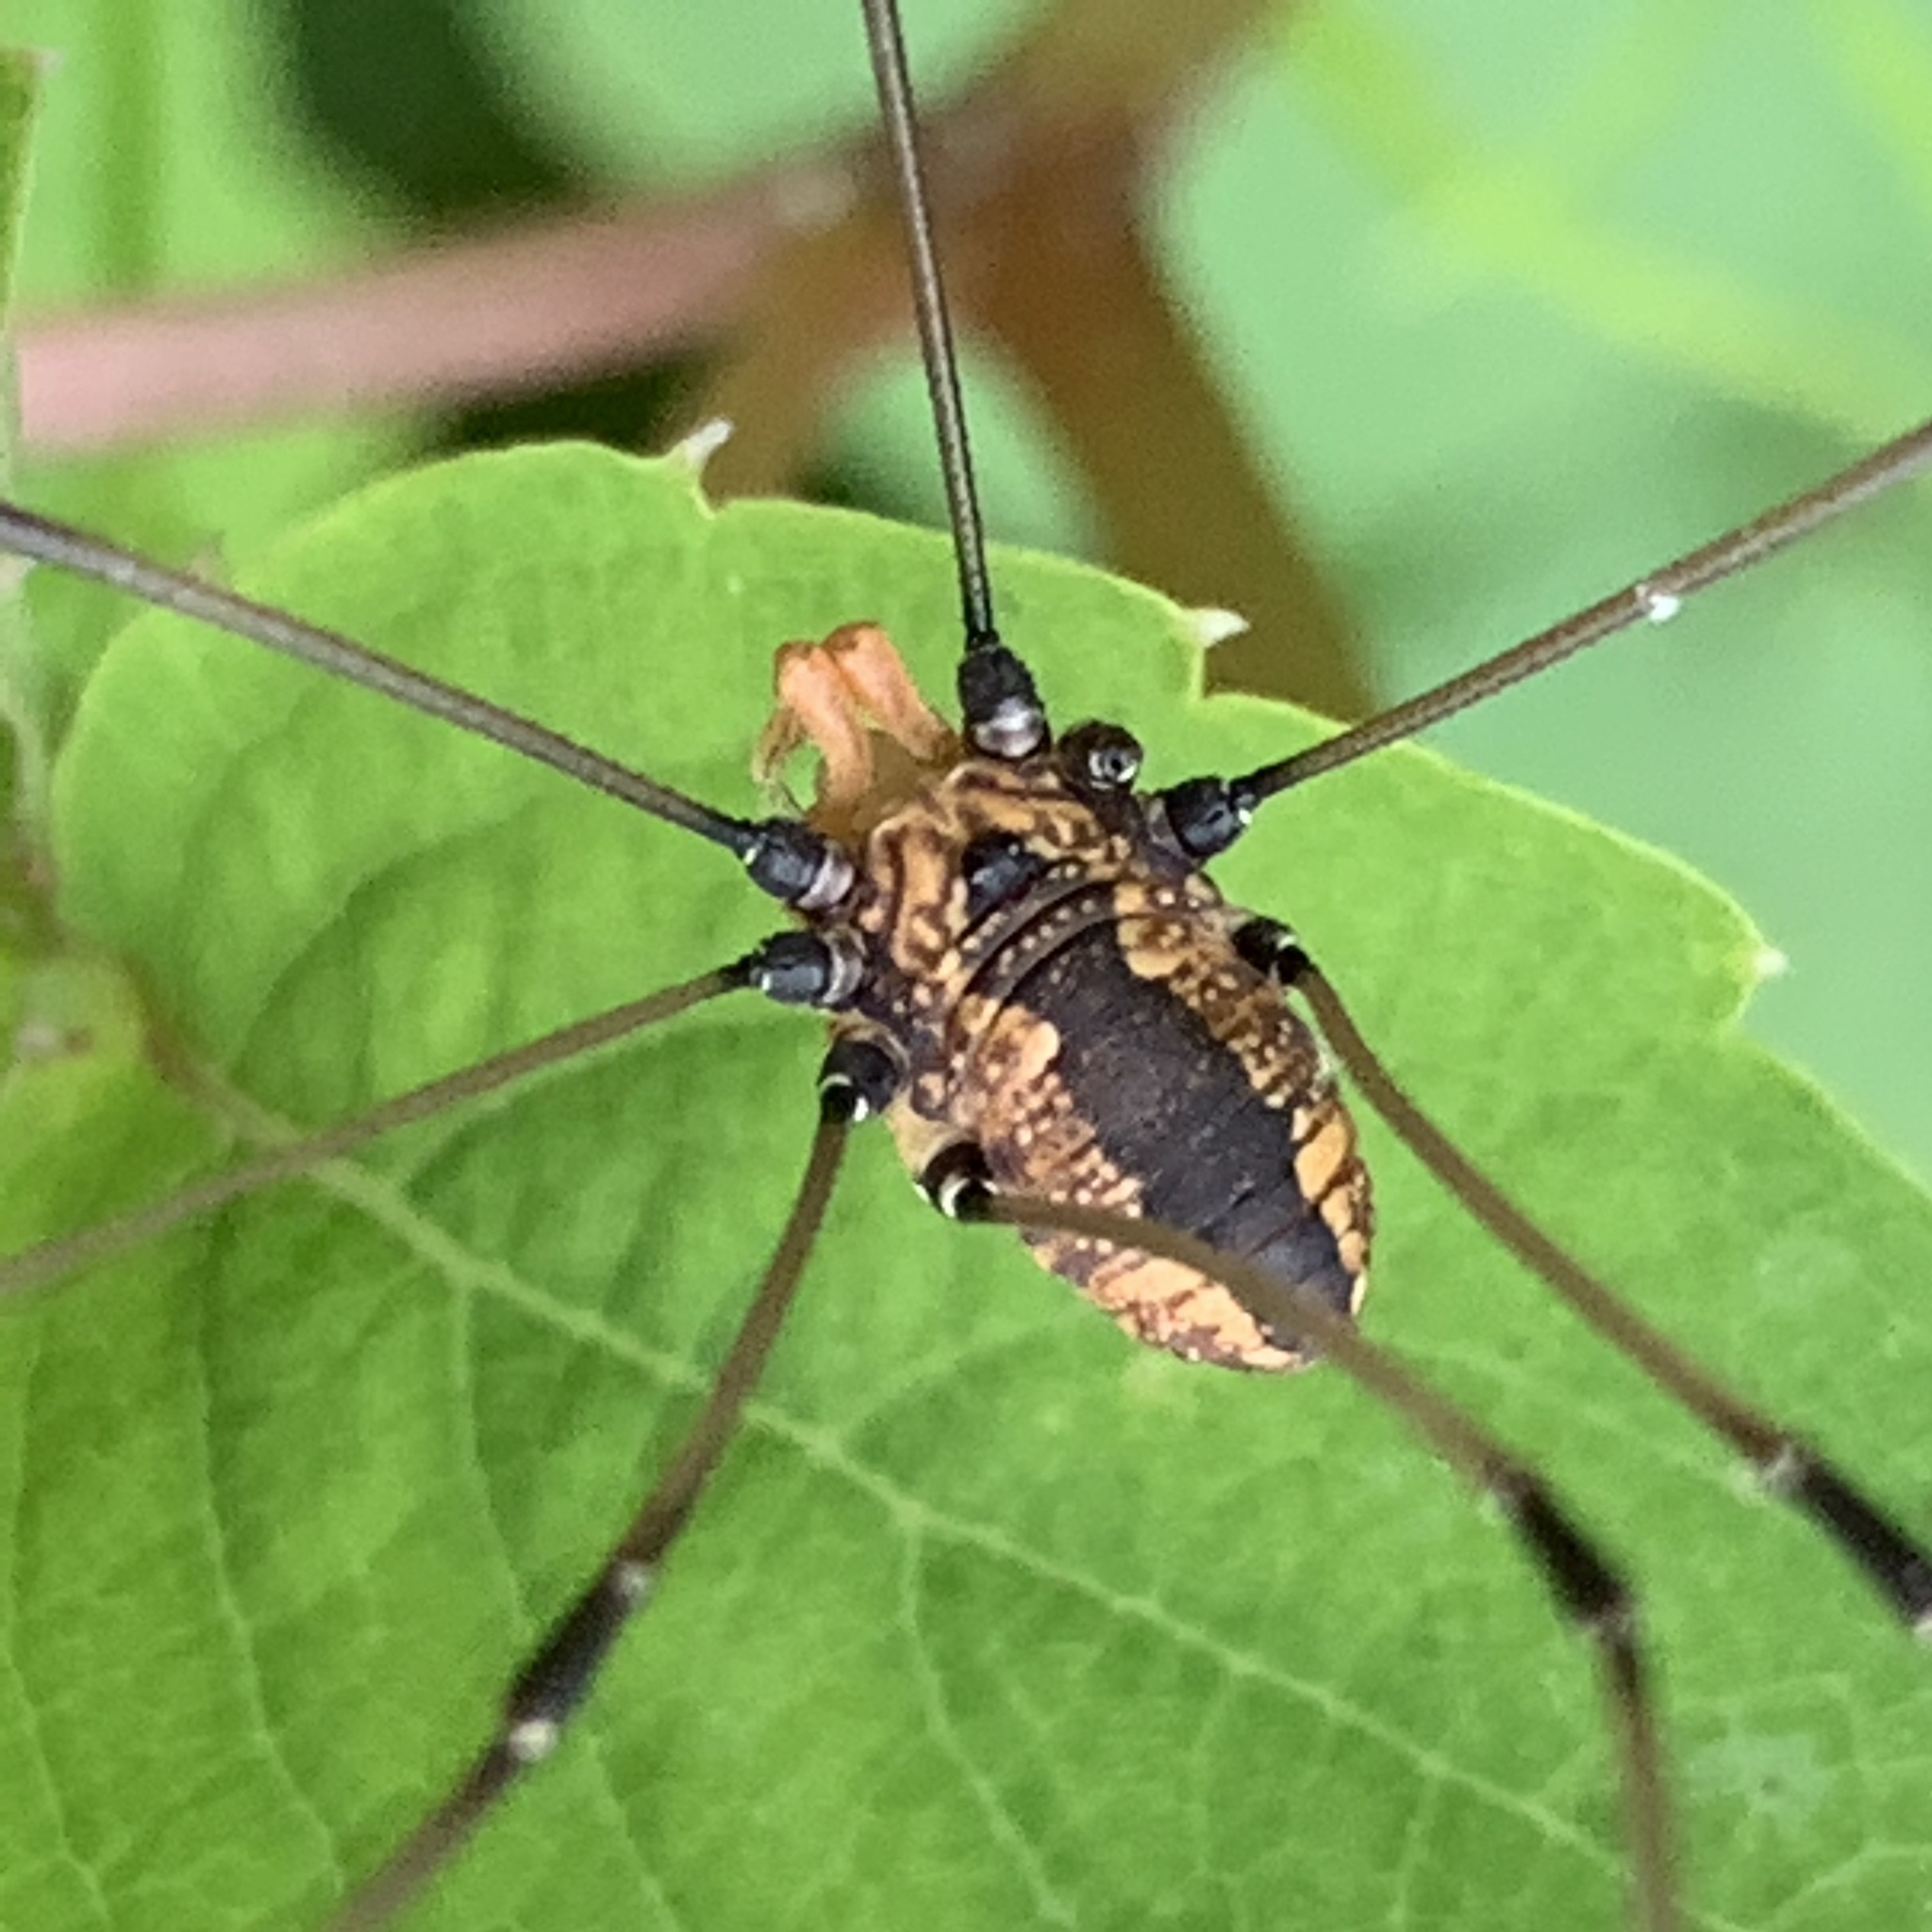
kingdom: Animalia
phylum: Arthropoda
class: Arachnida
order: Opiliones
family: Sclerosomatidae
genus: Leiobunum
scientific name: Leiobunum vittatum
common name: Eastern harvestman
